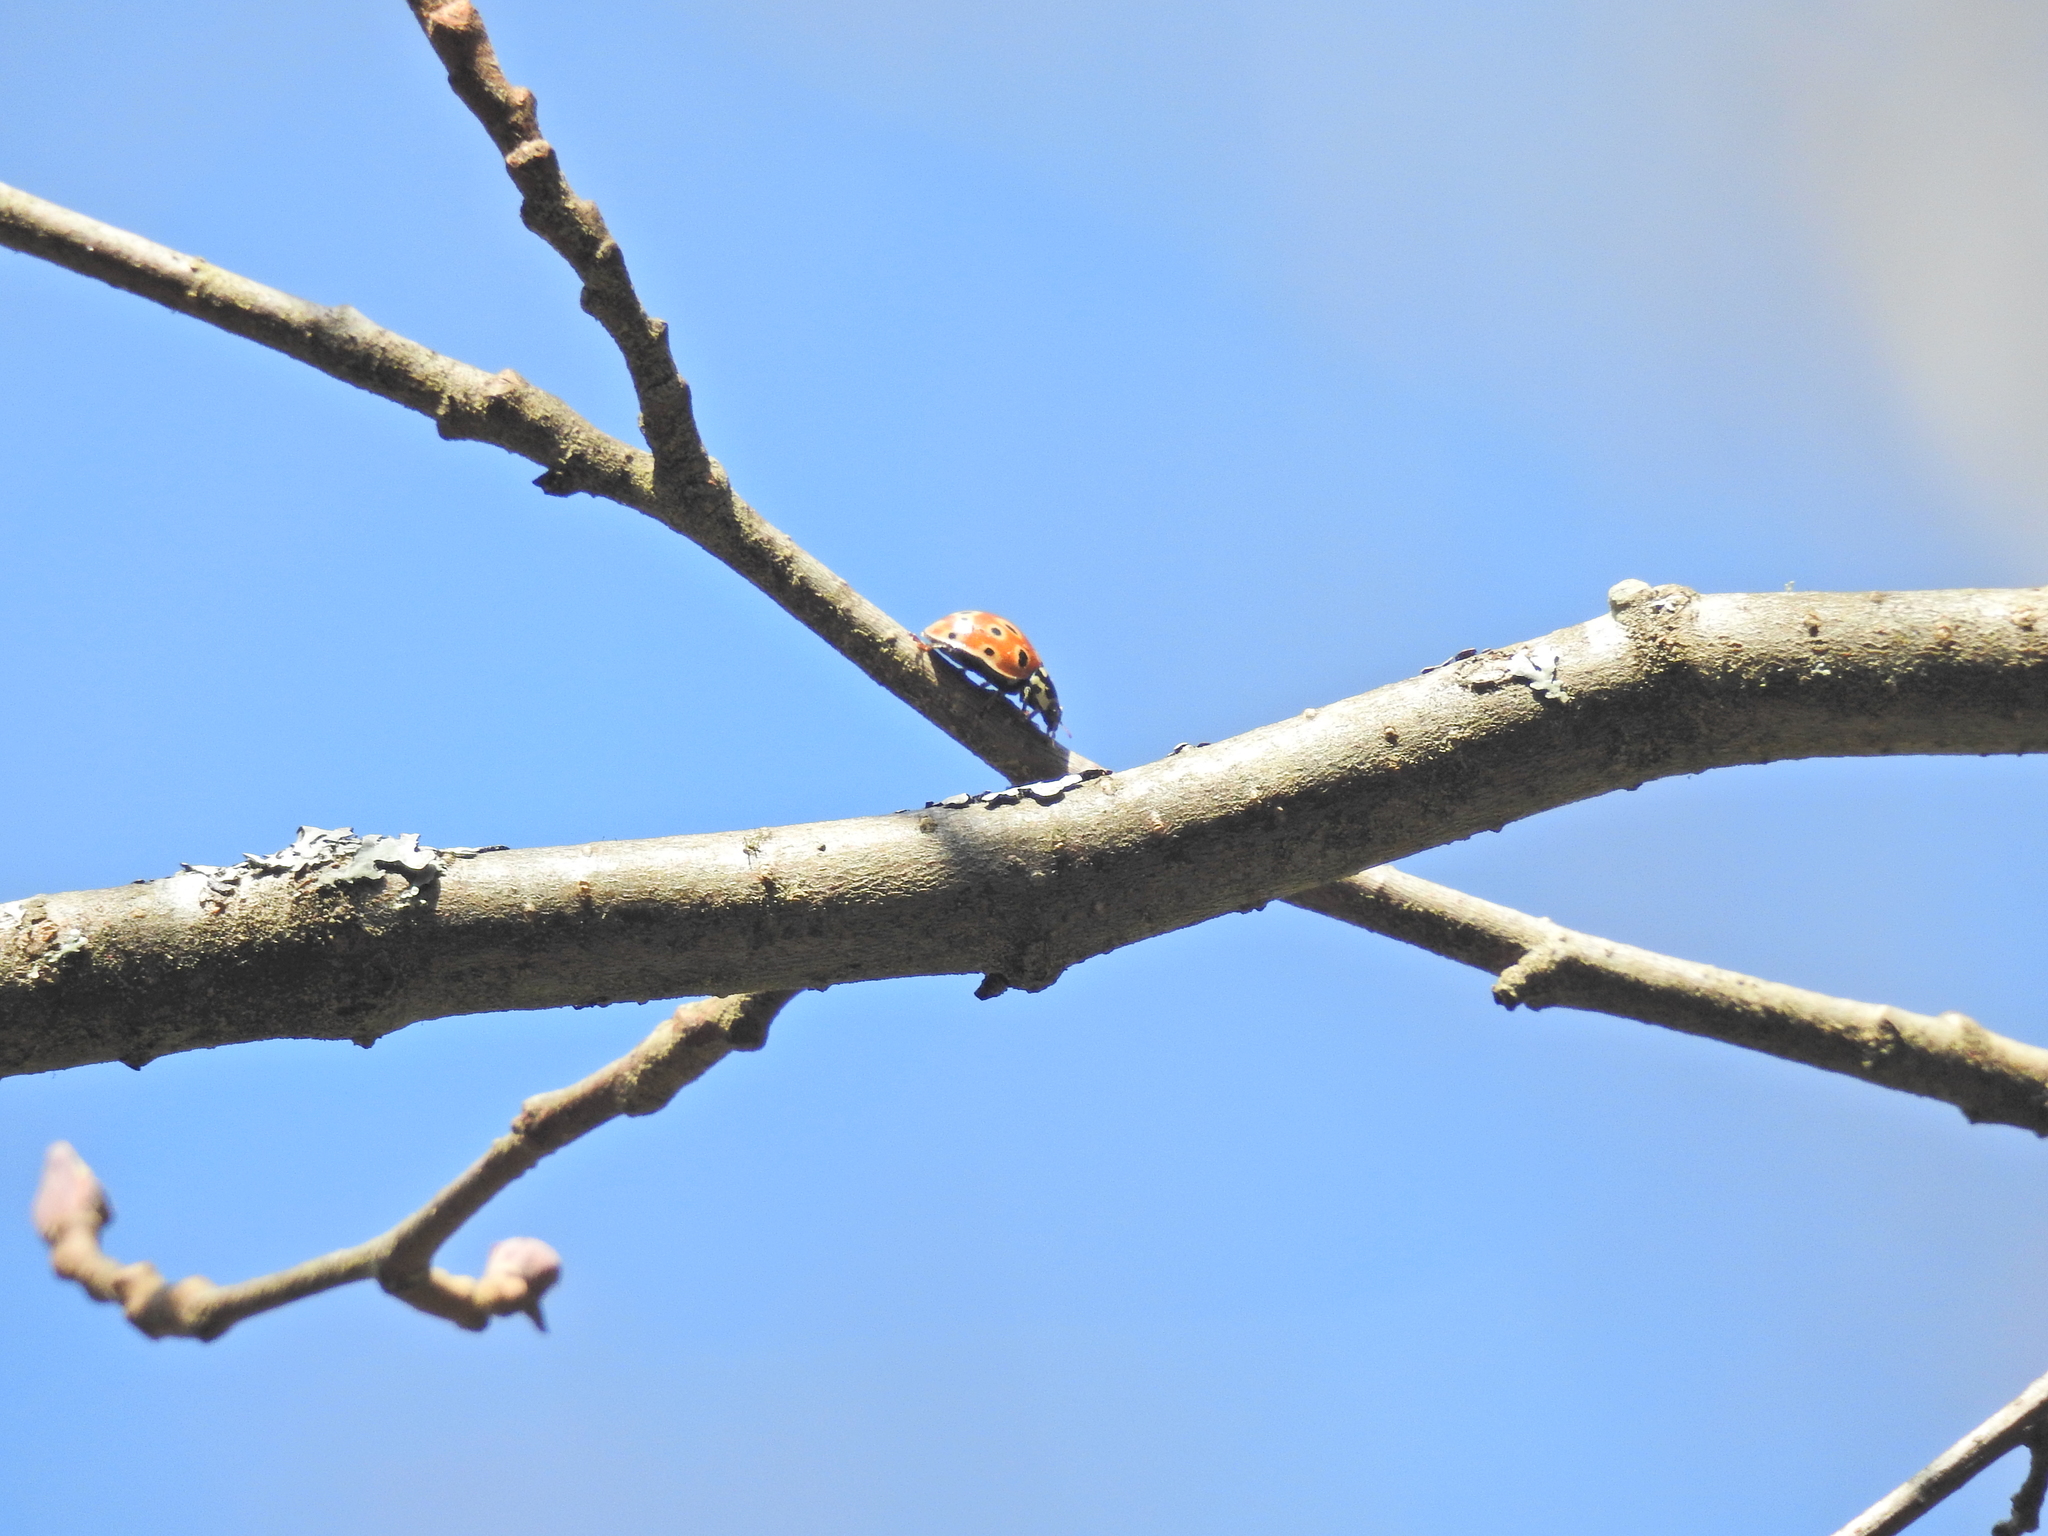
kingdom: Animalia
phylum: Arthropoda
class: Insecta
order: Coleoptera
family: Coccinellidae
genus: Anatis
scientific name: Anatis ocellata
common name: Eyed ladybird
